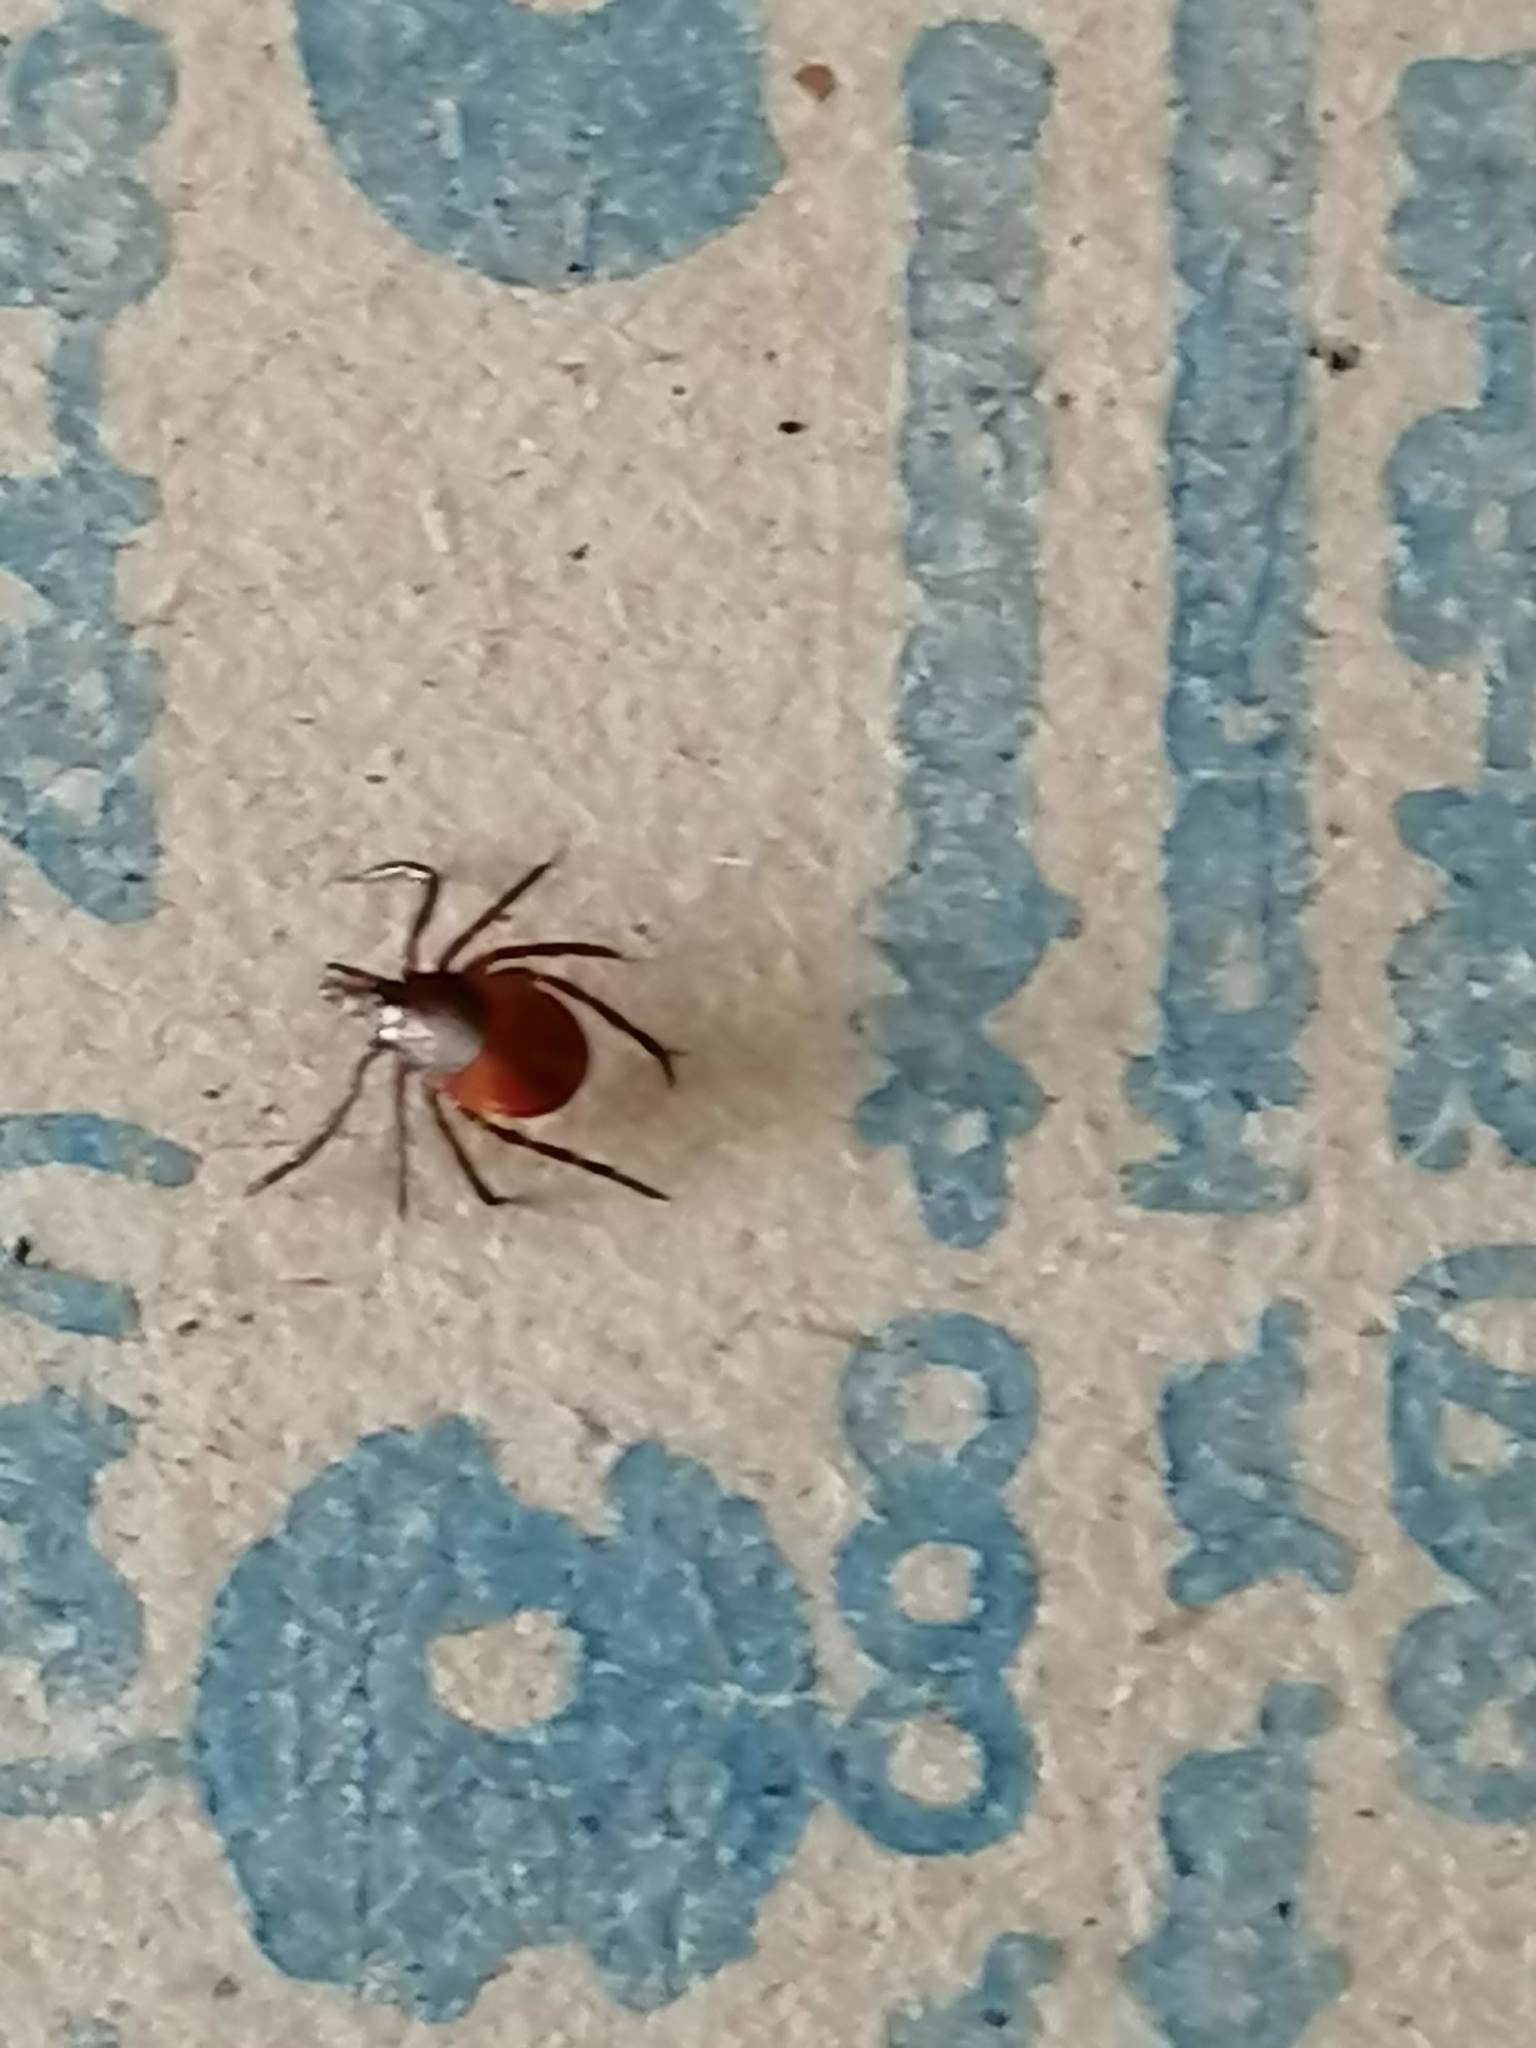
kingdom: Animalia
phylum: Arthropoda
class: Arachnida
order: Ixodida
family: Ixodidae
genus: Ixodes
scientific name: Ixodes persulcatus
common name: Taiga tick
